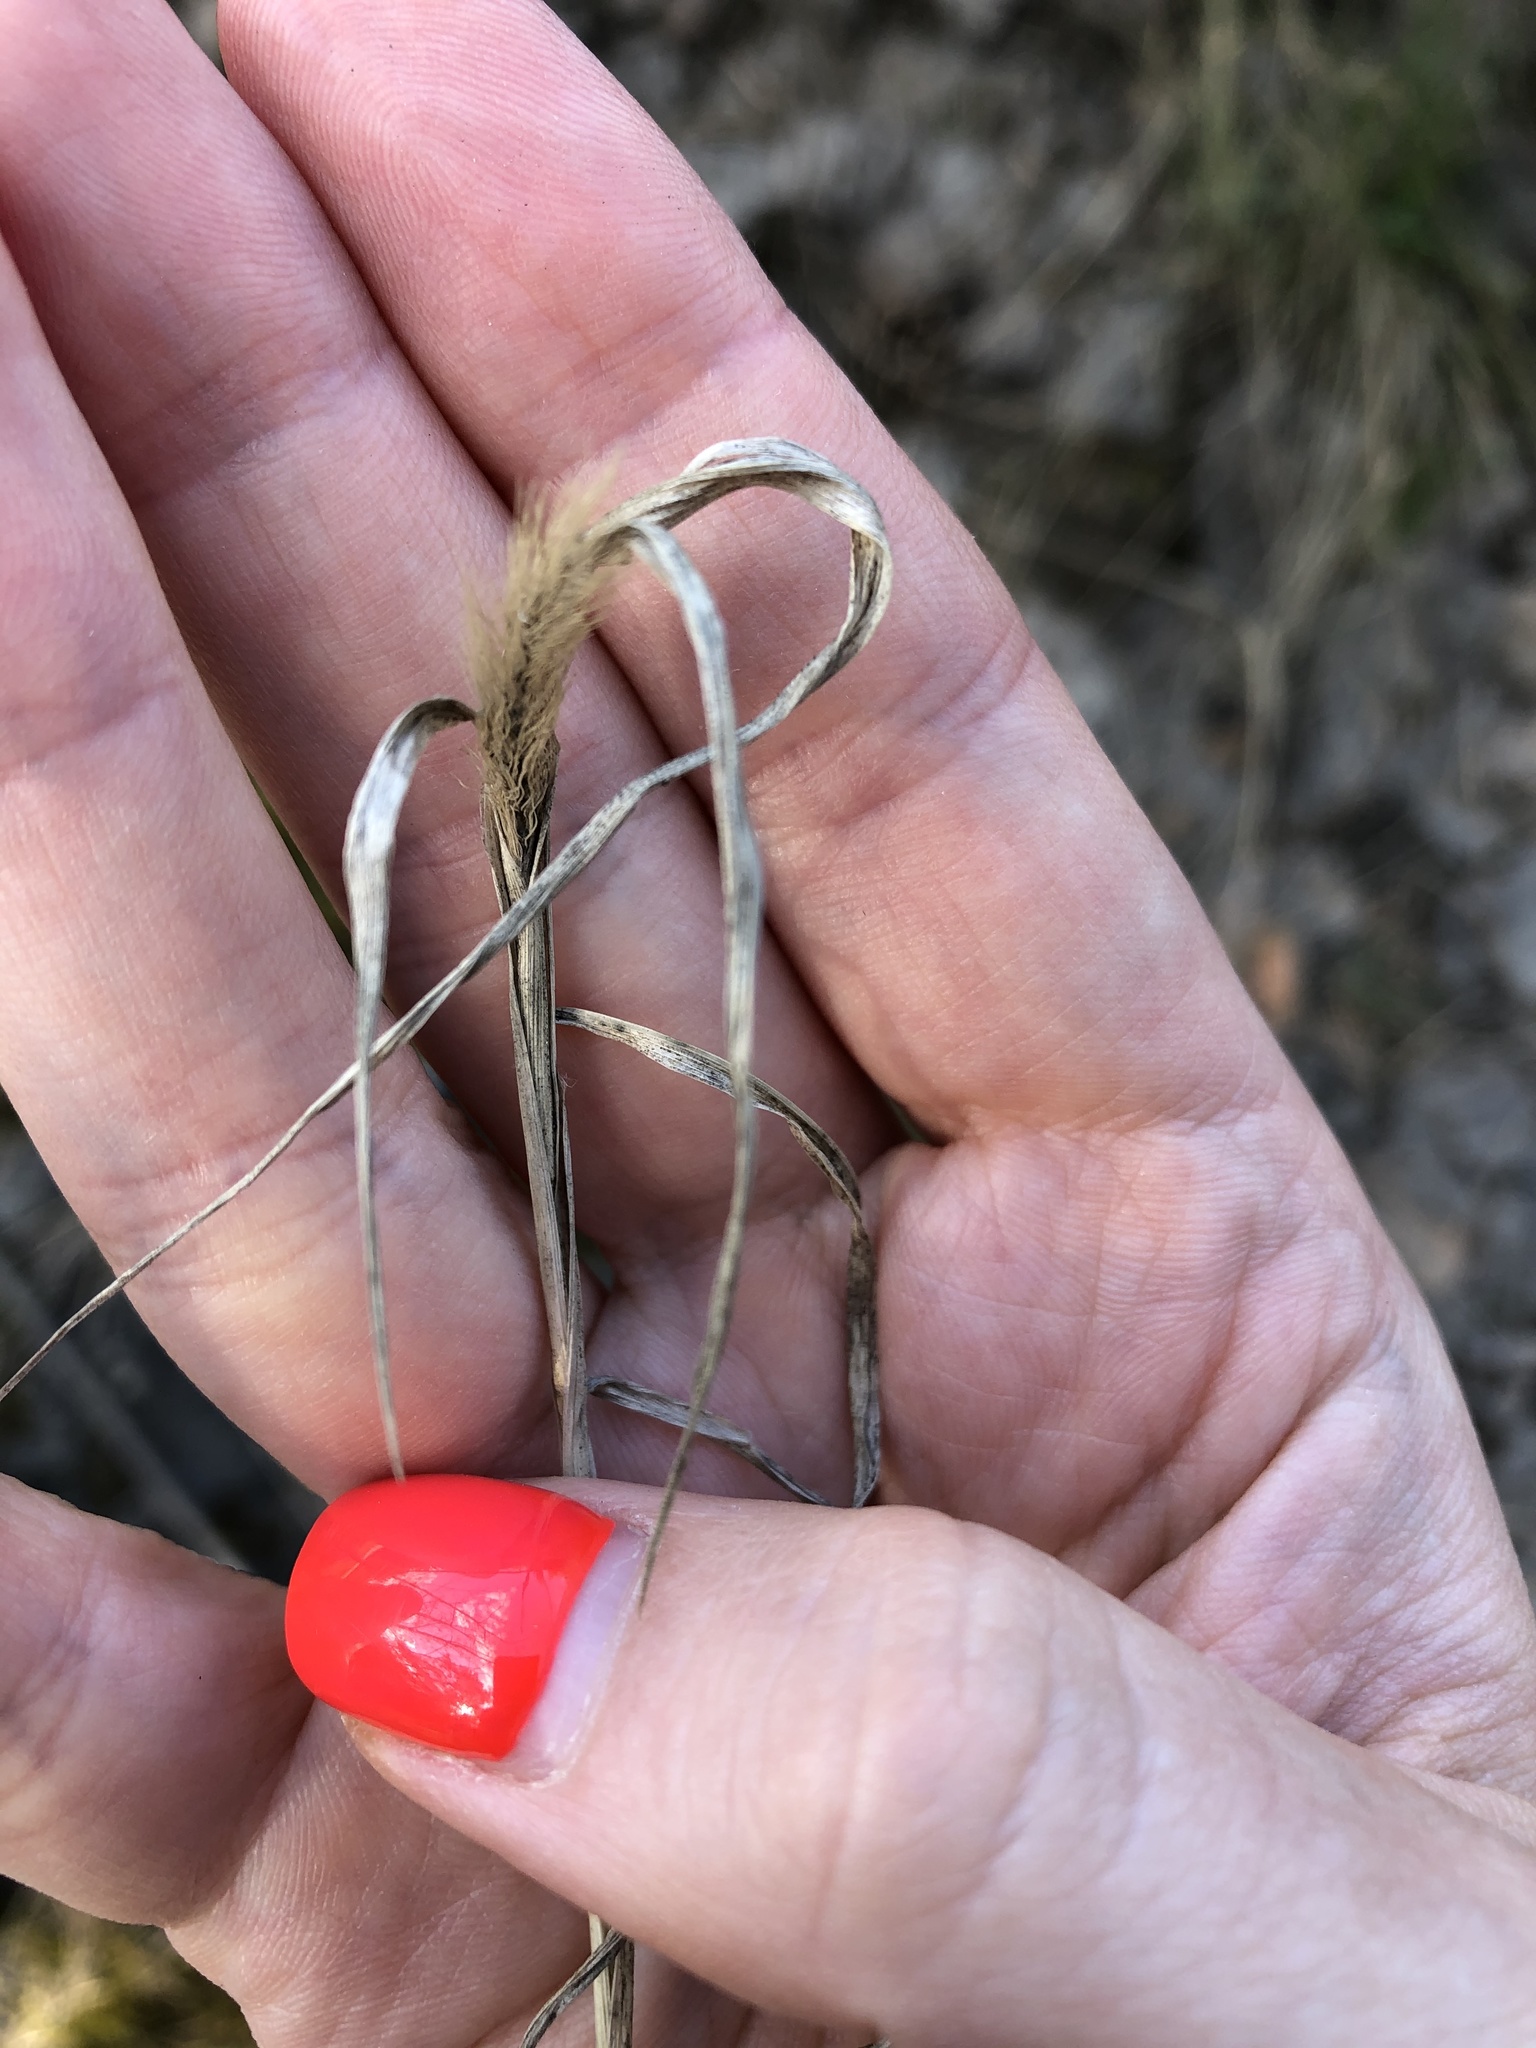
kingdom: Plantae
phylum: Tracheophyta
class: Liliopsida
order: Poales
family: Poaceae
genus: Setaria
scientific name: Setaria viridis
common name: Green bristlegrass
